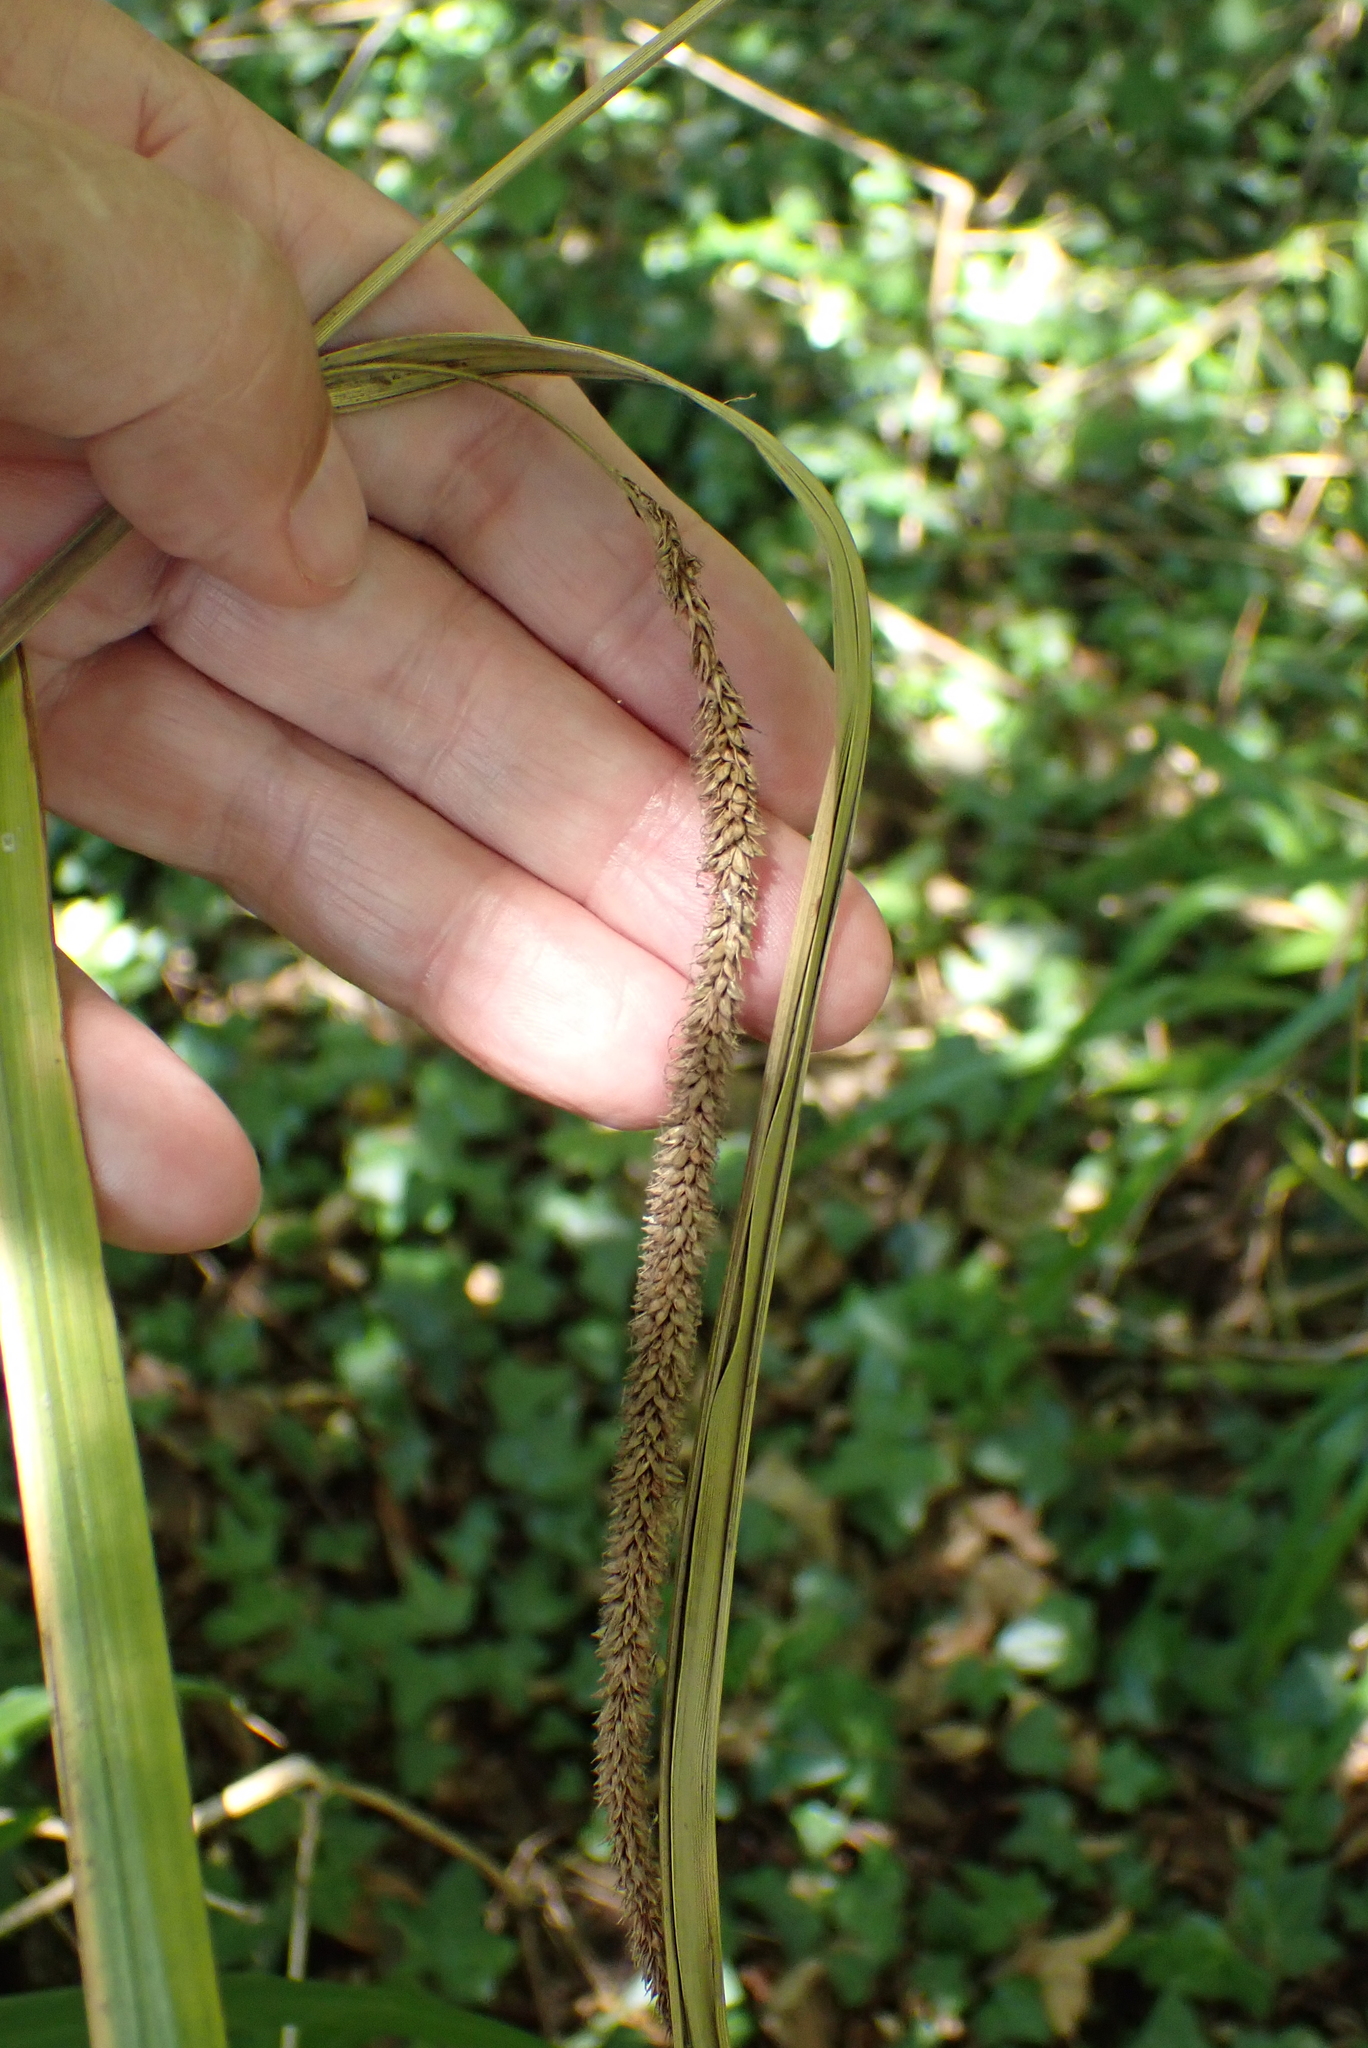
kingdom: Plantae
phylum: Tracheophyta
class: Liliopsida
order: Poales
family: Cyperaceae
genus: Carex
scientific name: Carex pendula
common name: Pendulous sedge
